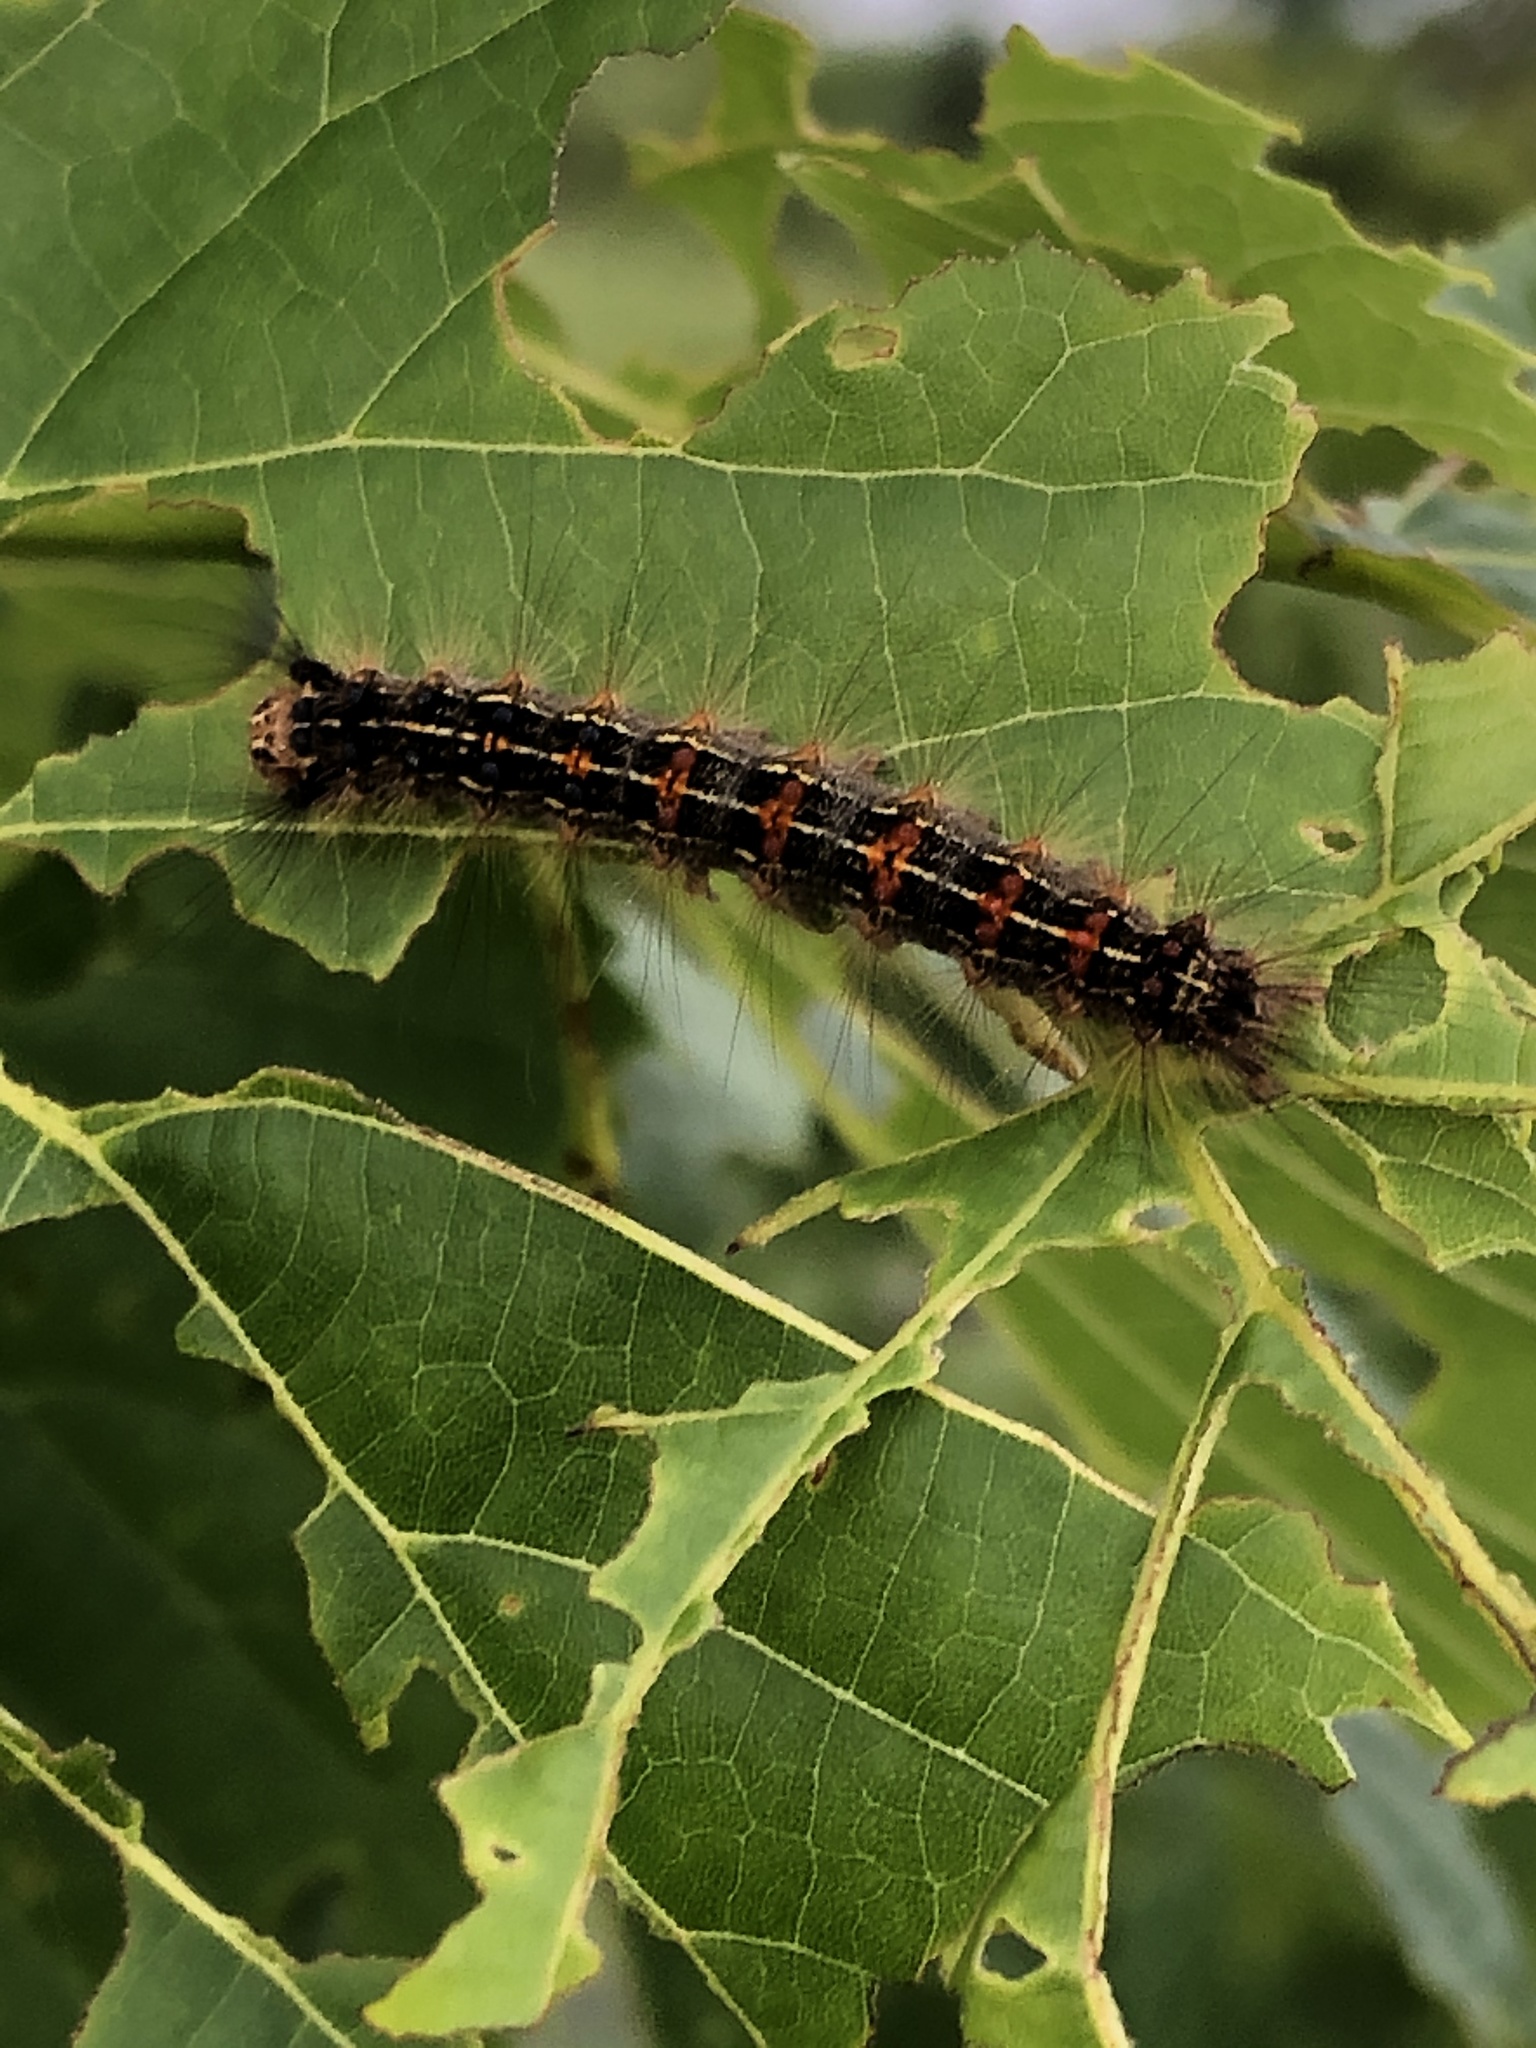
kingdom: Animalia
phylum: Arthropoda
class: Insecta
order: Lepidoptera
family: Erebidae
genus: Lymantria
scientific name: Lymantria dispar
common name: Gypsy moth
